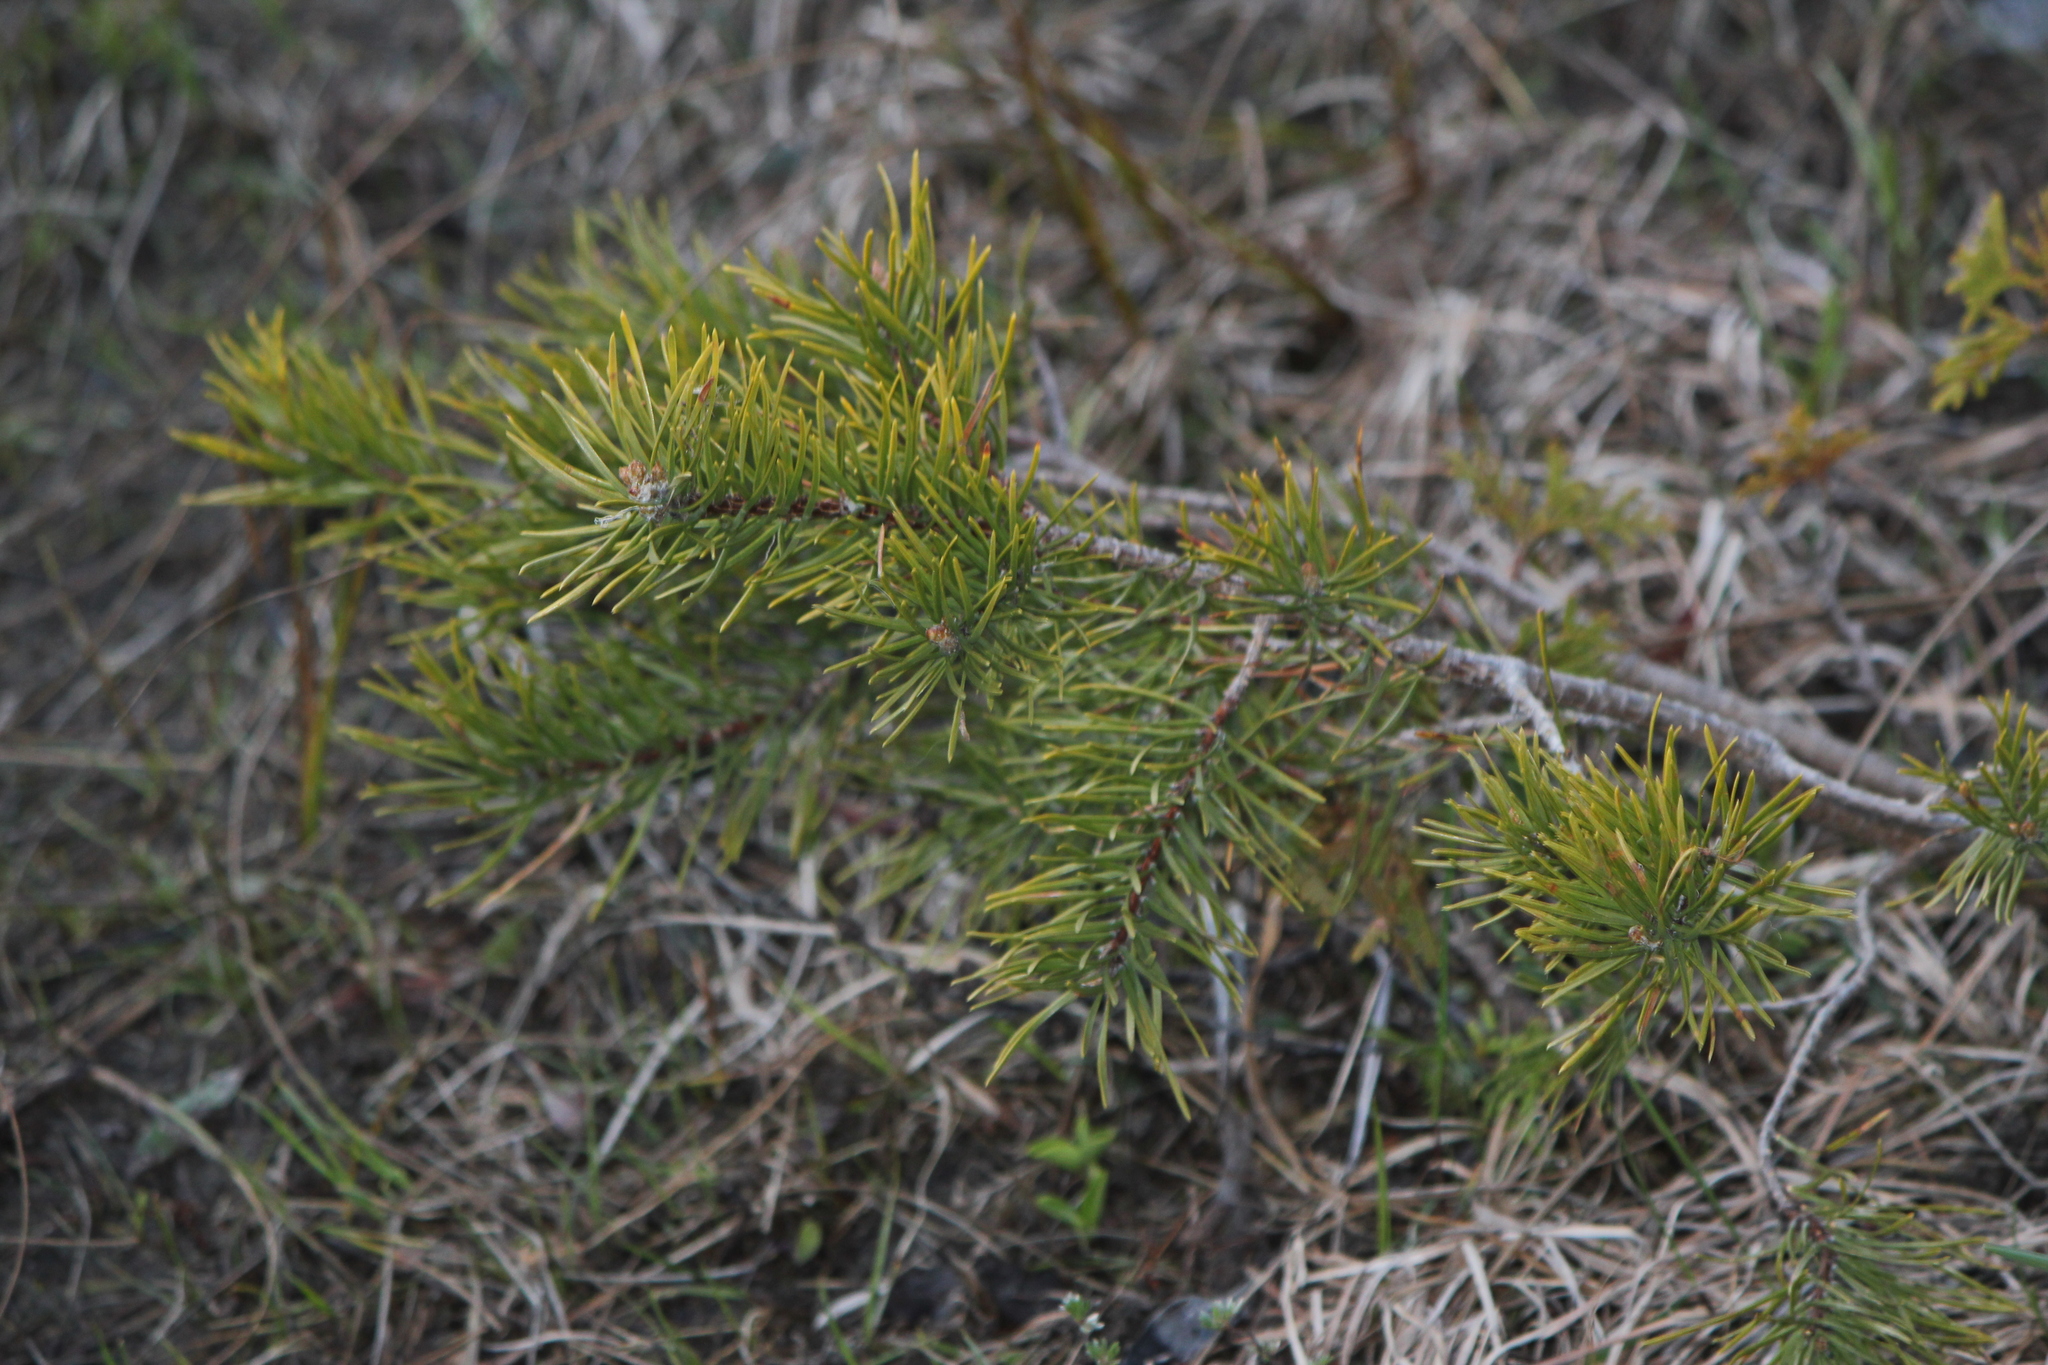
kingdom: Plantae
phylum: Tracheophyta
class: Pinopsida
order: Pinales
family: Pinaceae
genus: Pinus
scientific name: Pinus banksiana
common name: Jack pine
